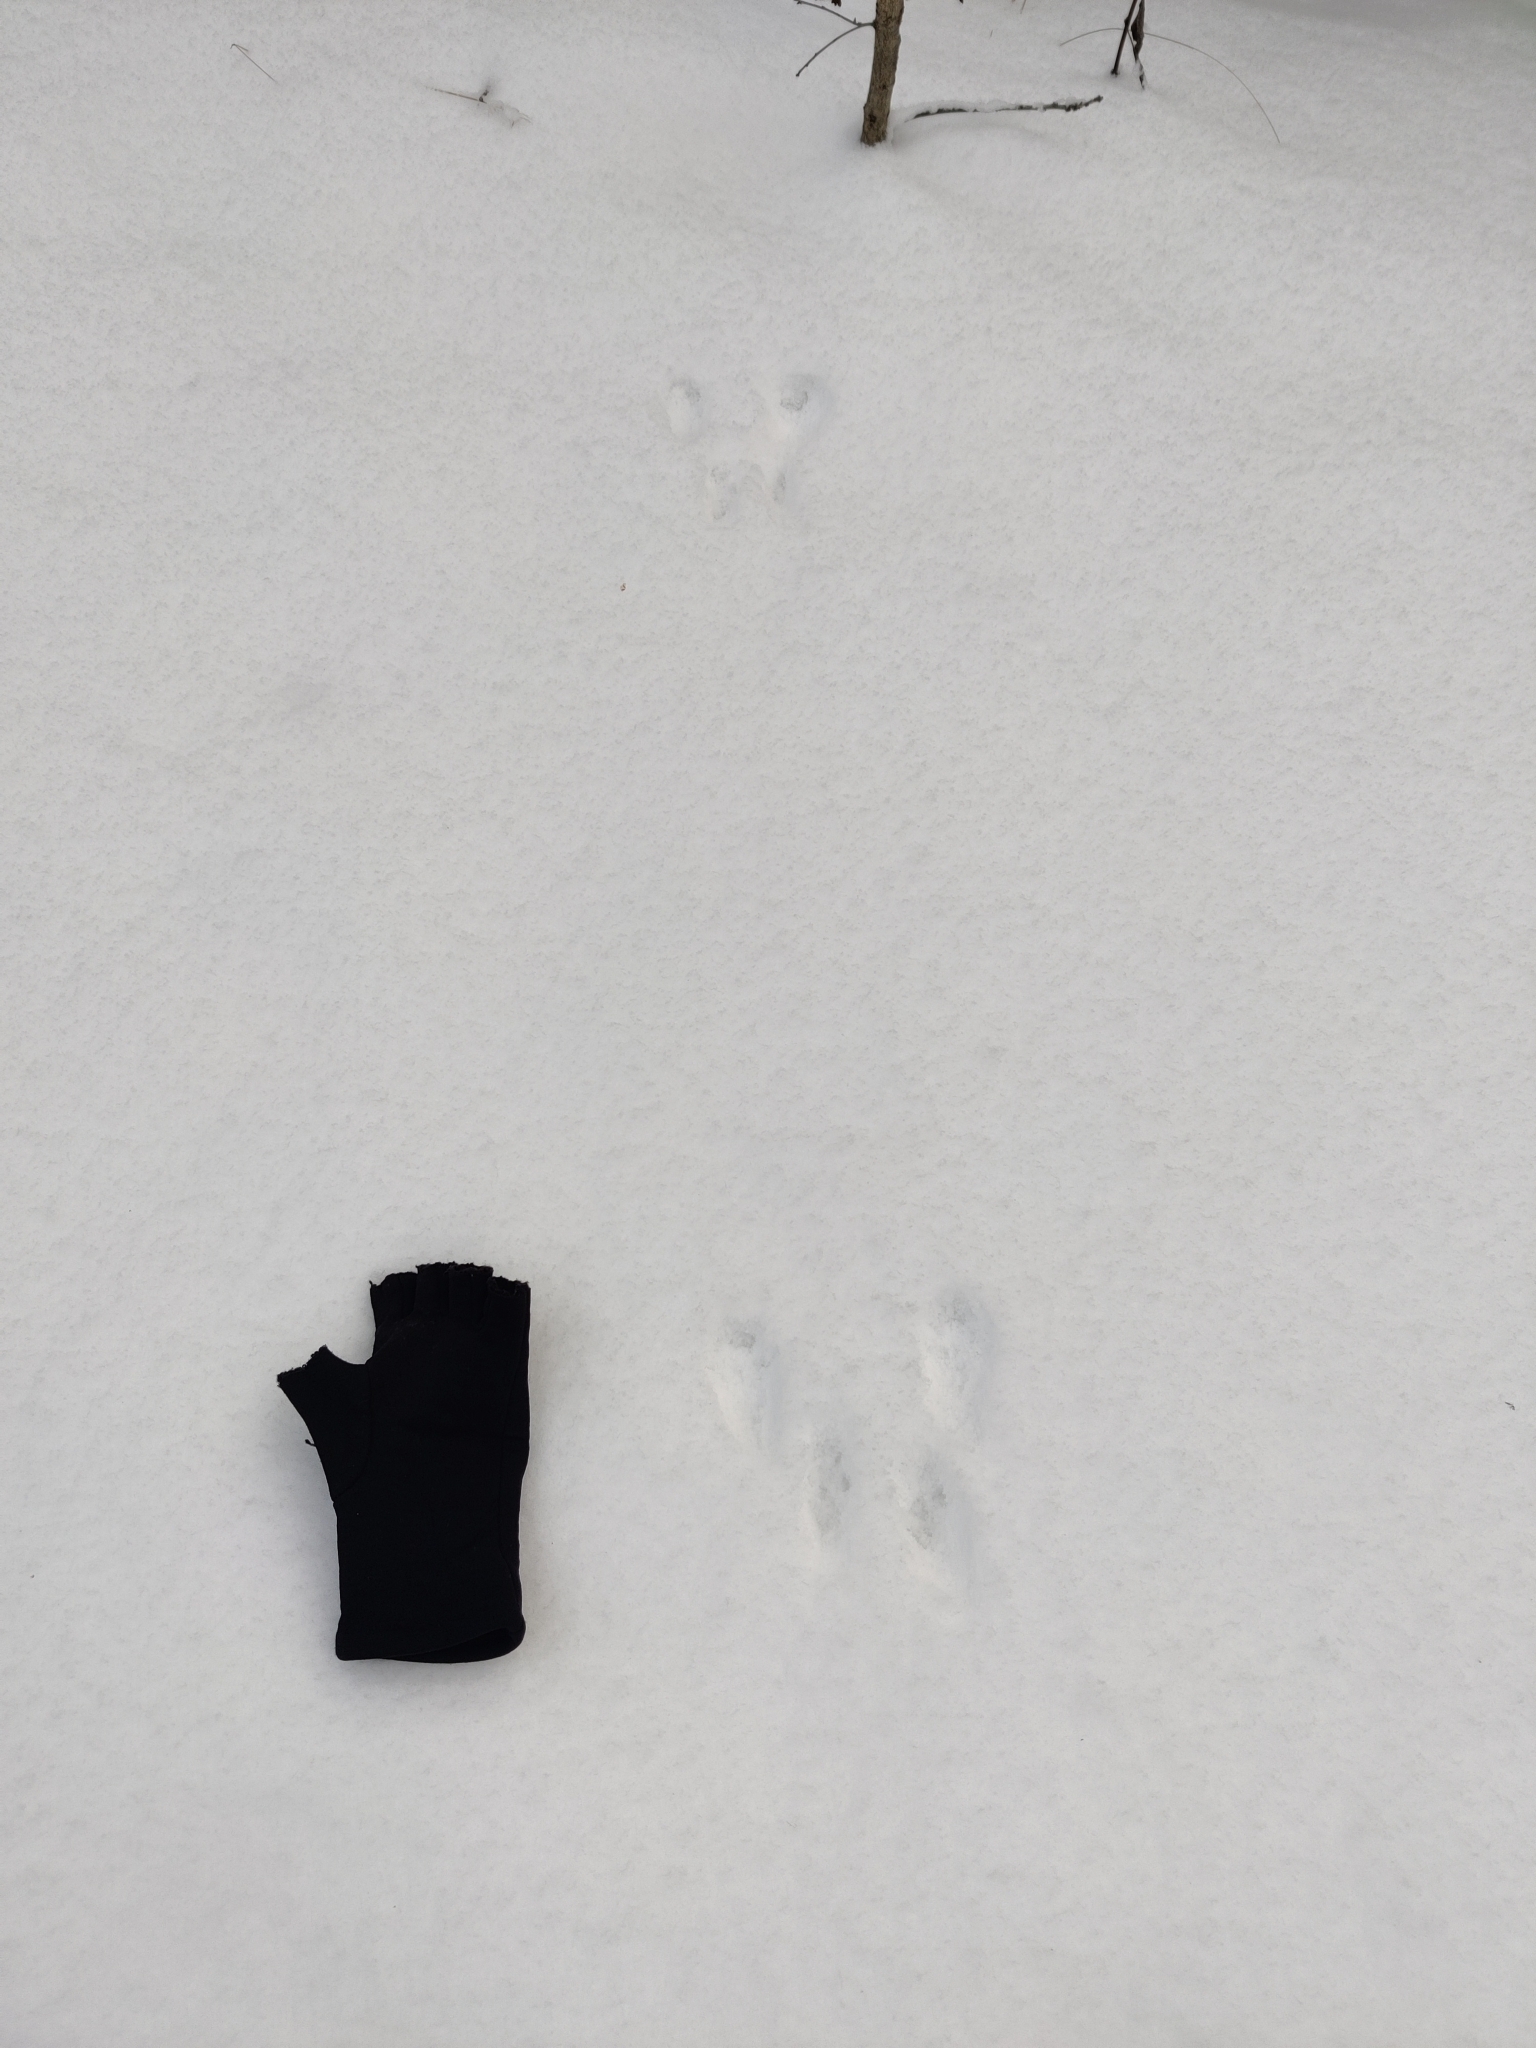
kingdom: Animalia
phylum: Chordata
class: Mammalia
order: Rodentia
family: Sciuridae
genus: Sciurus
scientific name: Sciurus vulgaris
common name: Eurasian red squirrel
